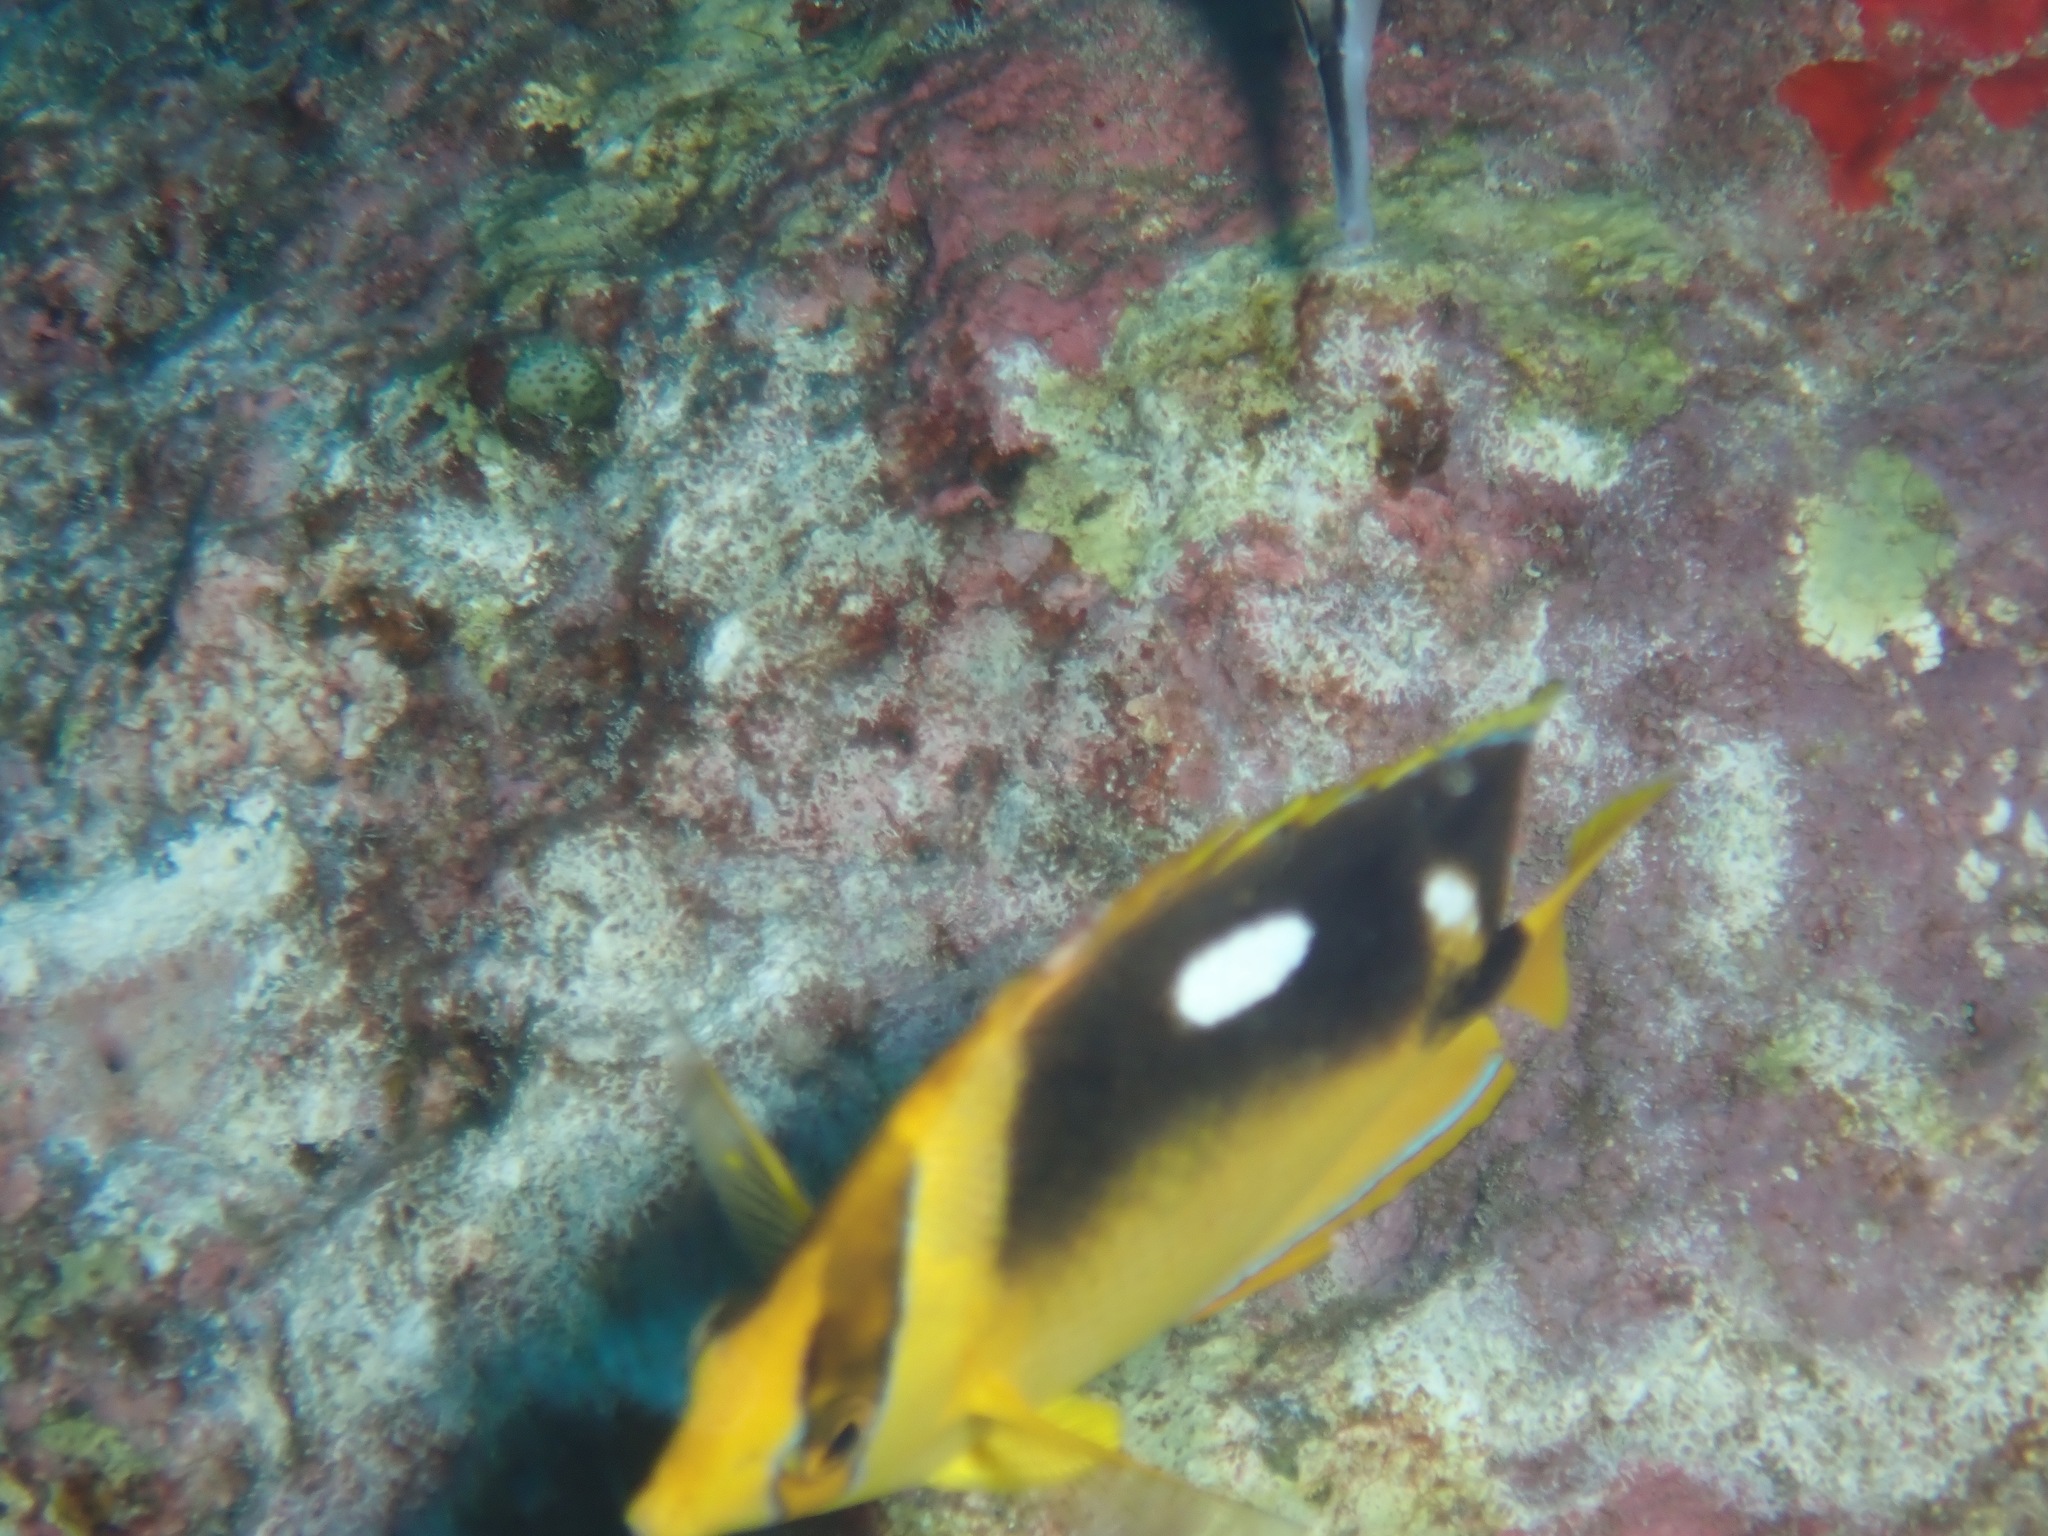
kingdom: Animalia
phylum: Chordata
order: Perciformes
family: Chaetodontidae
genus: Chaetodon
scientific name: Chaetodon quadrimaculatus
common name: Fourspot butterflyfish
